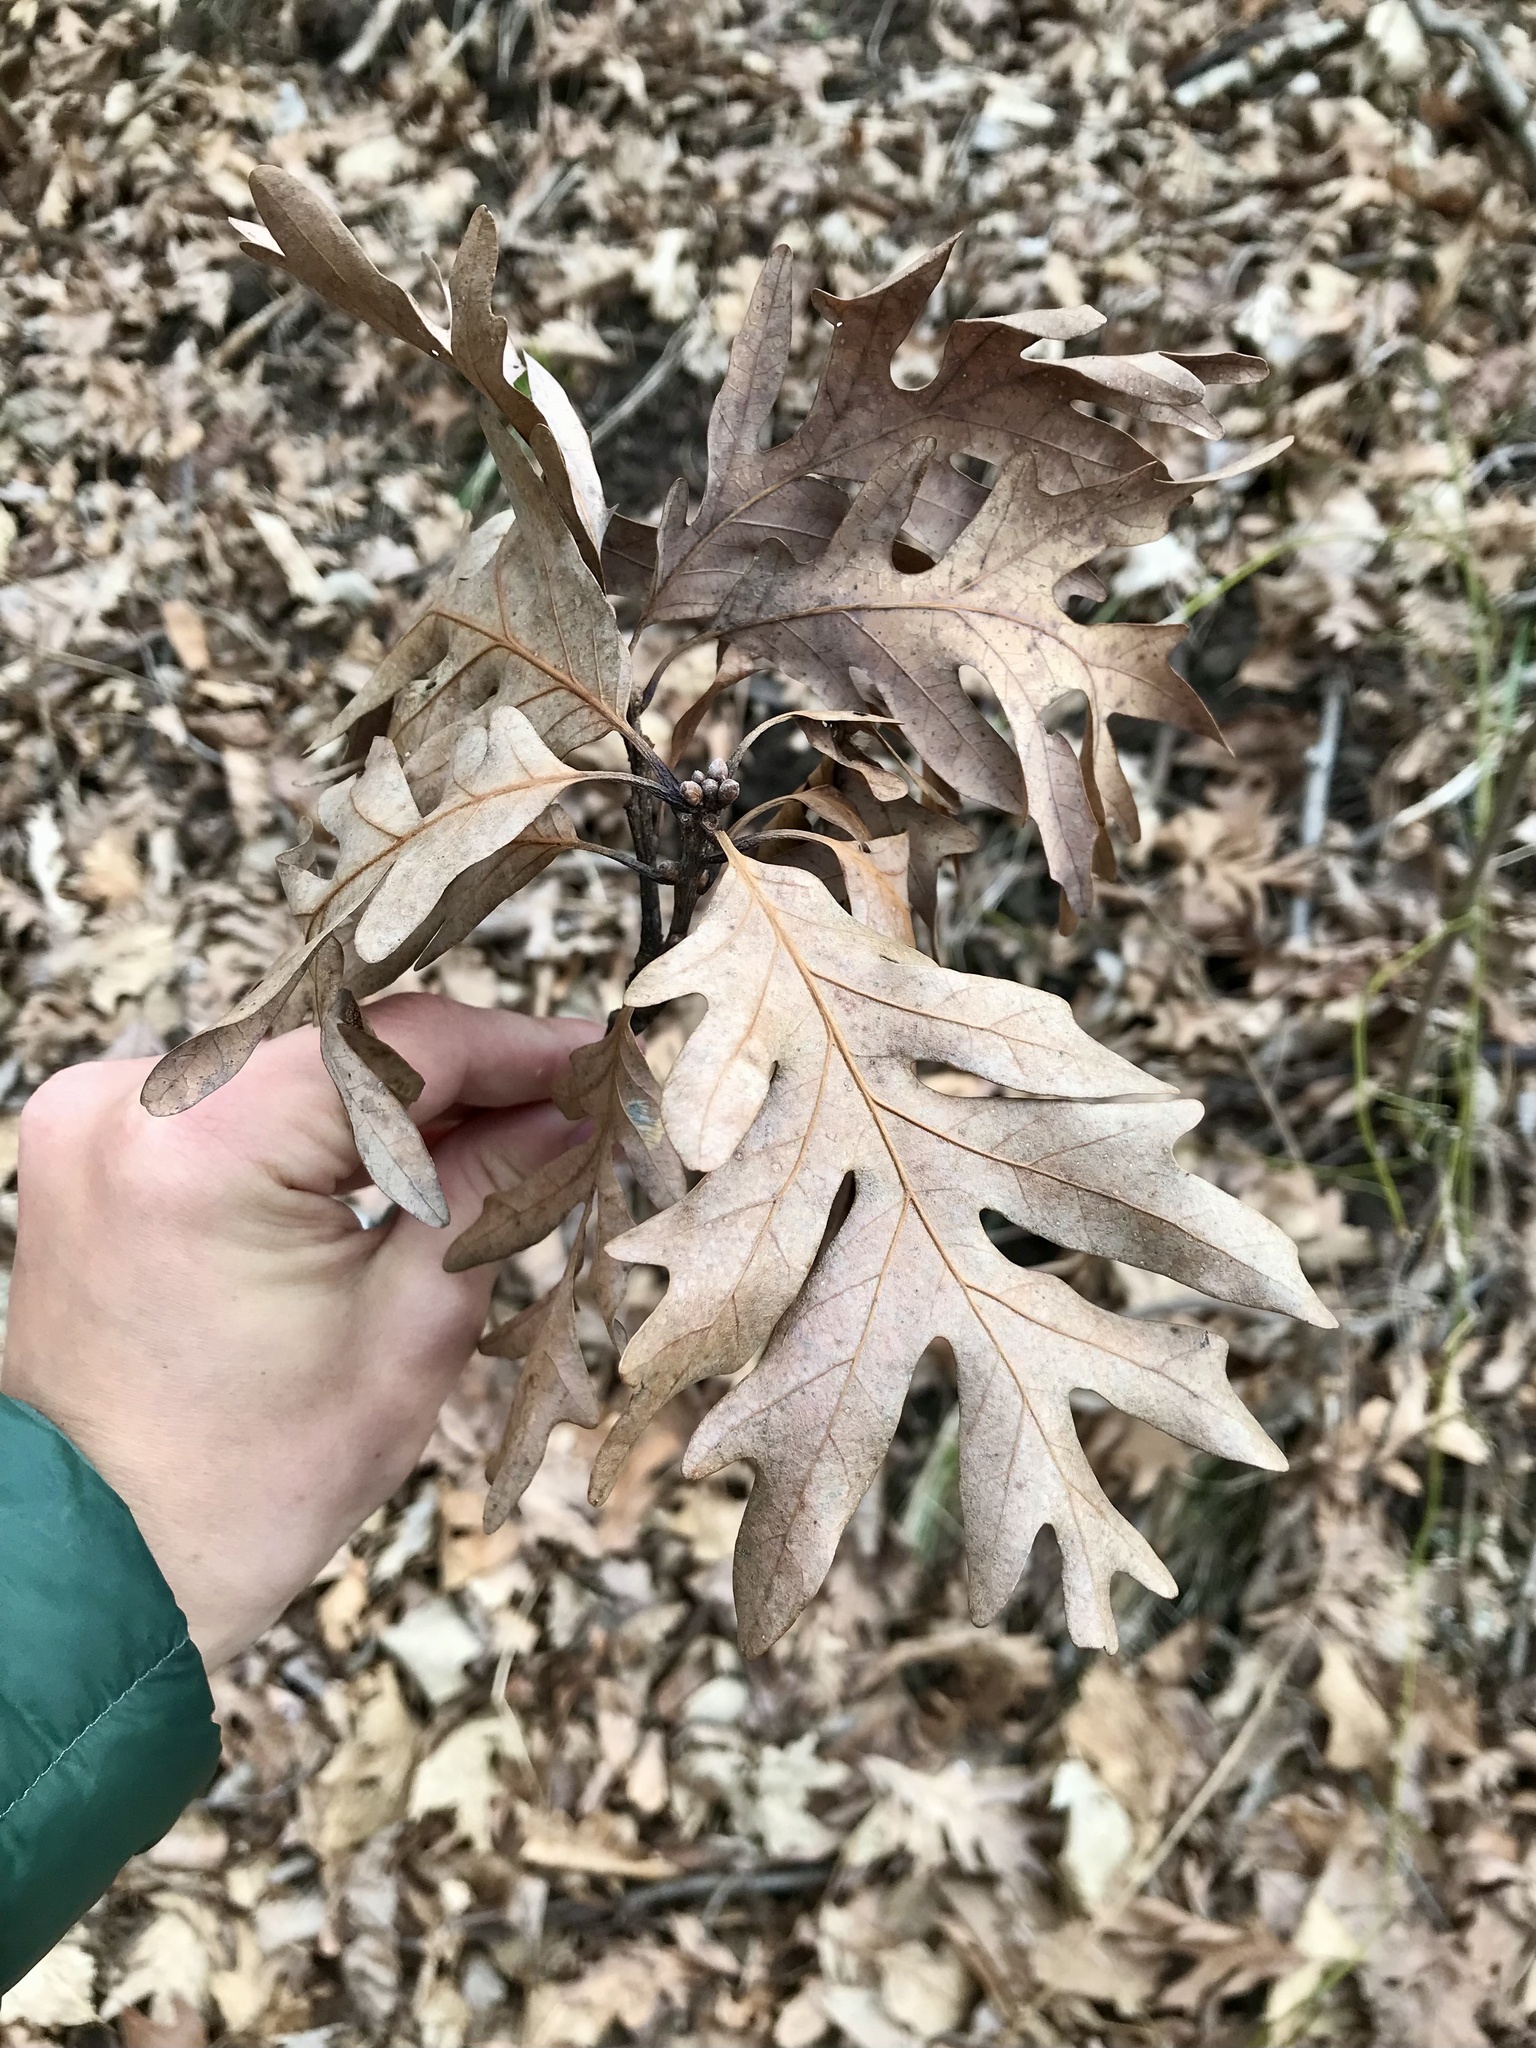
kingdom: Plantae
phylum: Tracheophyta
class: Magnoliopsida
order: Fagales
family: Fagaceae
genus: Quercus
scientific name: Quercus alba
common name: White oak
